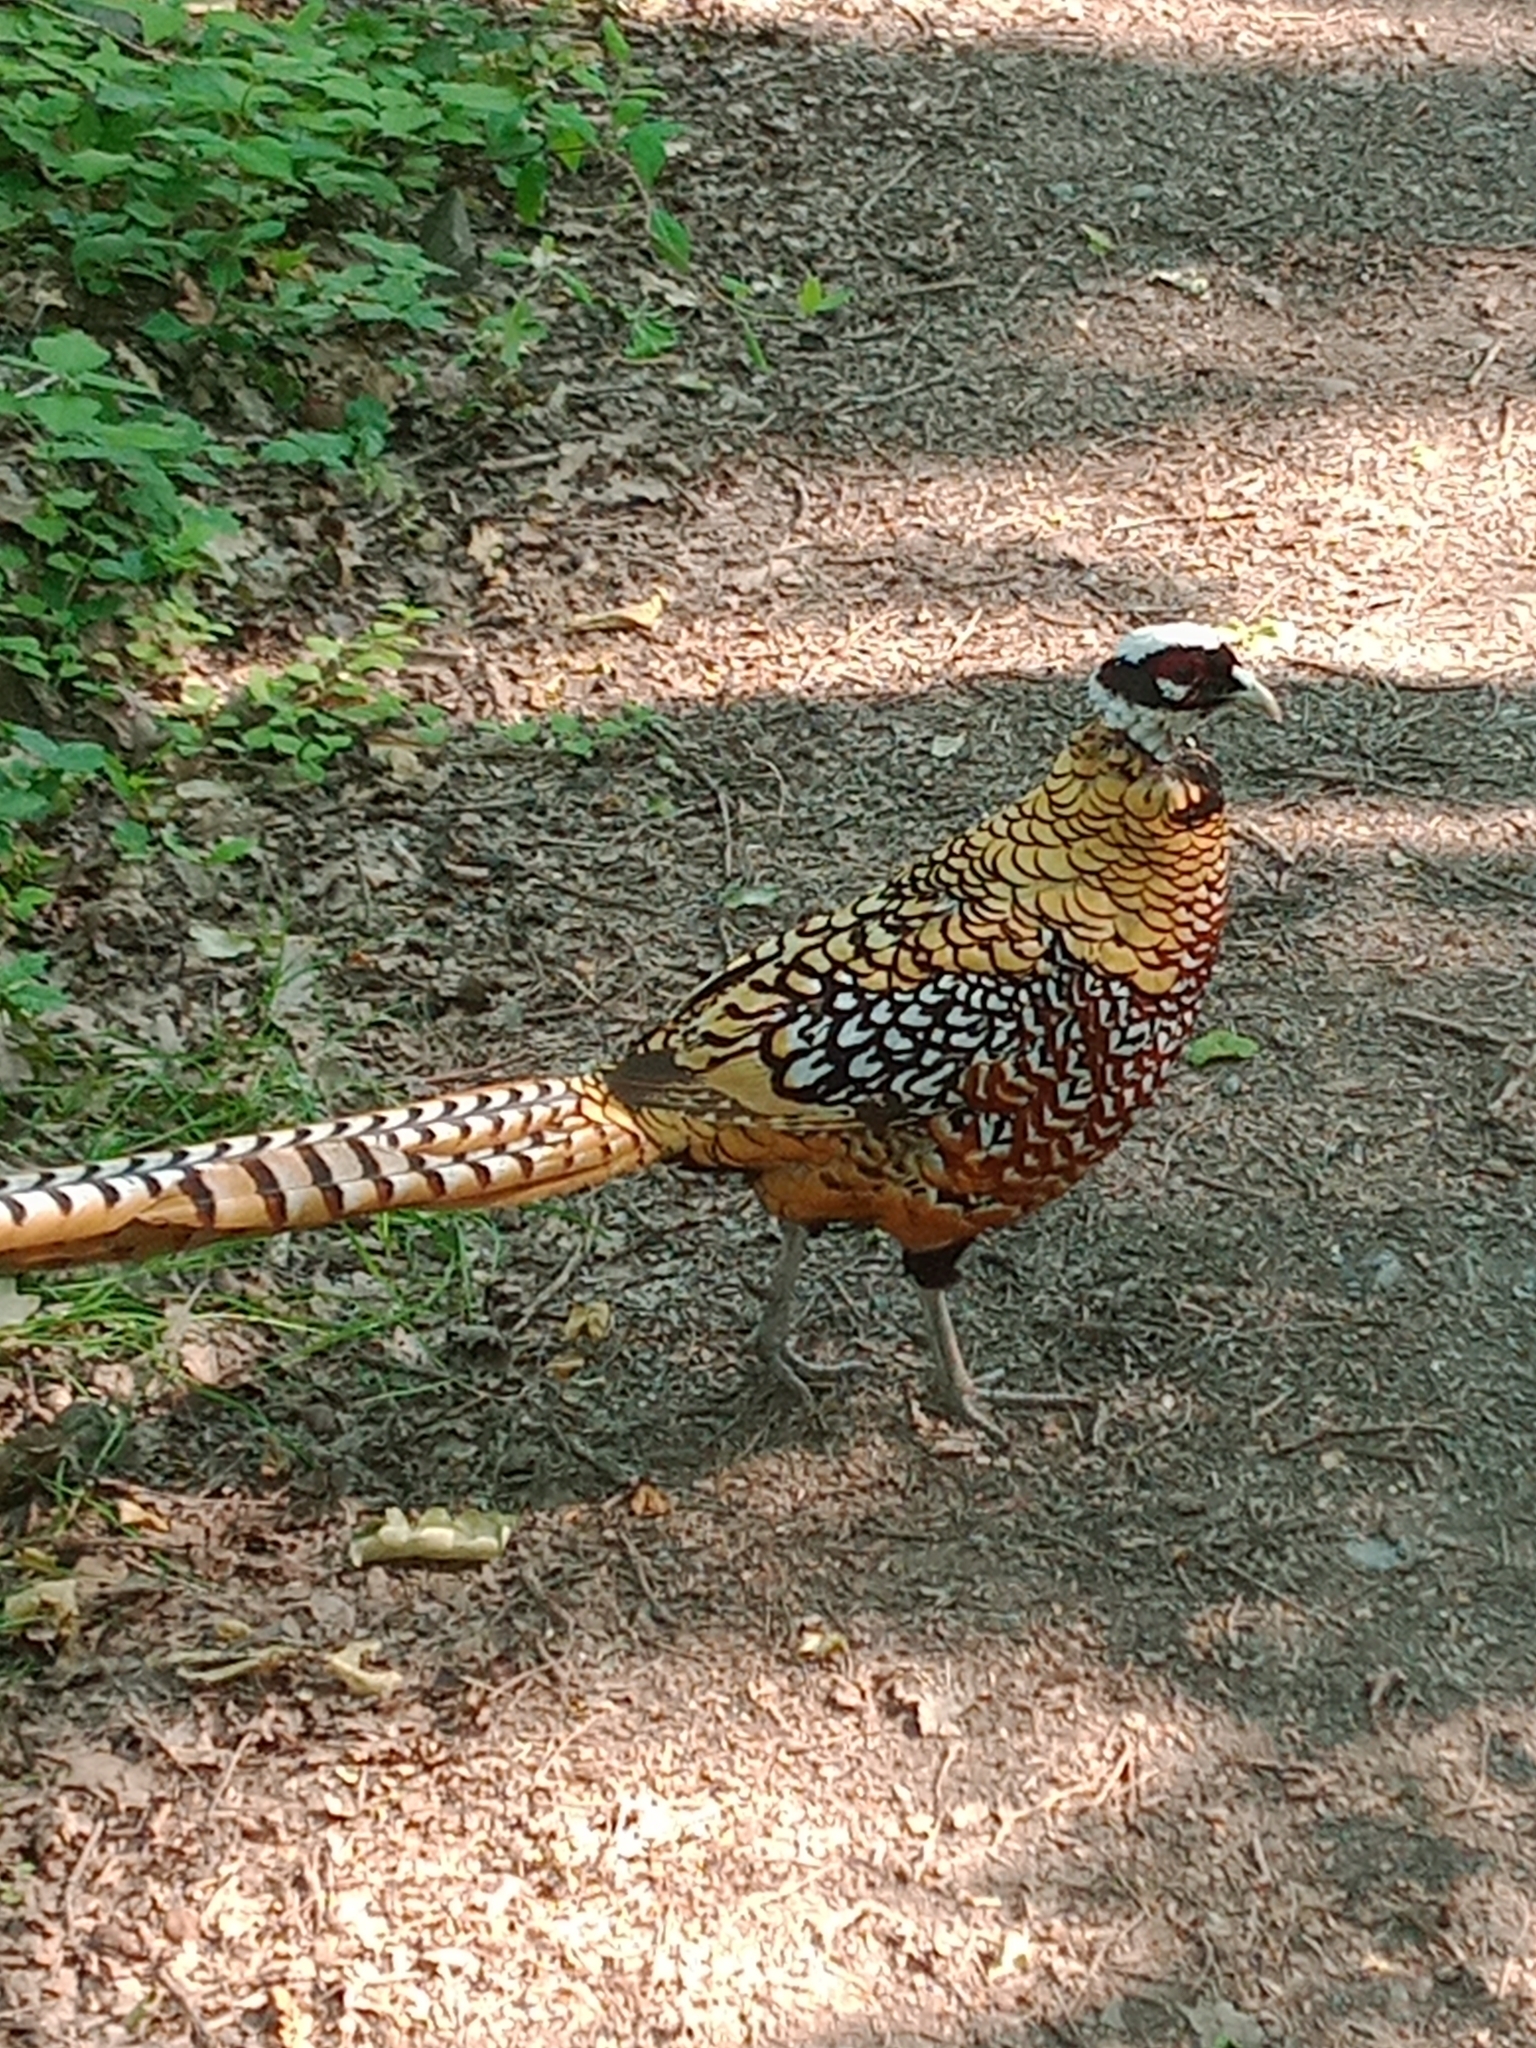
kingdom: Animalia
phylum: Chordata
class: Aves
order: Galliformes
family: Phasianidae
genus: Syrmaticus
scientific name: Syrmaticus reevesii
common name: Reeves's pheasant
